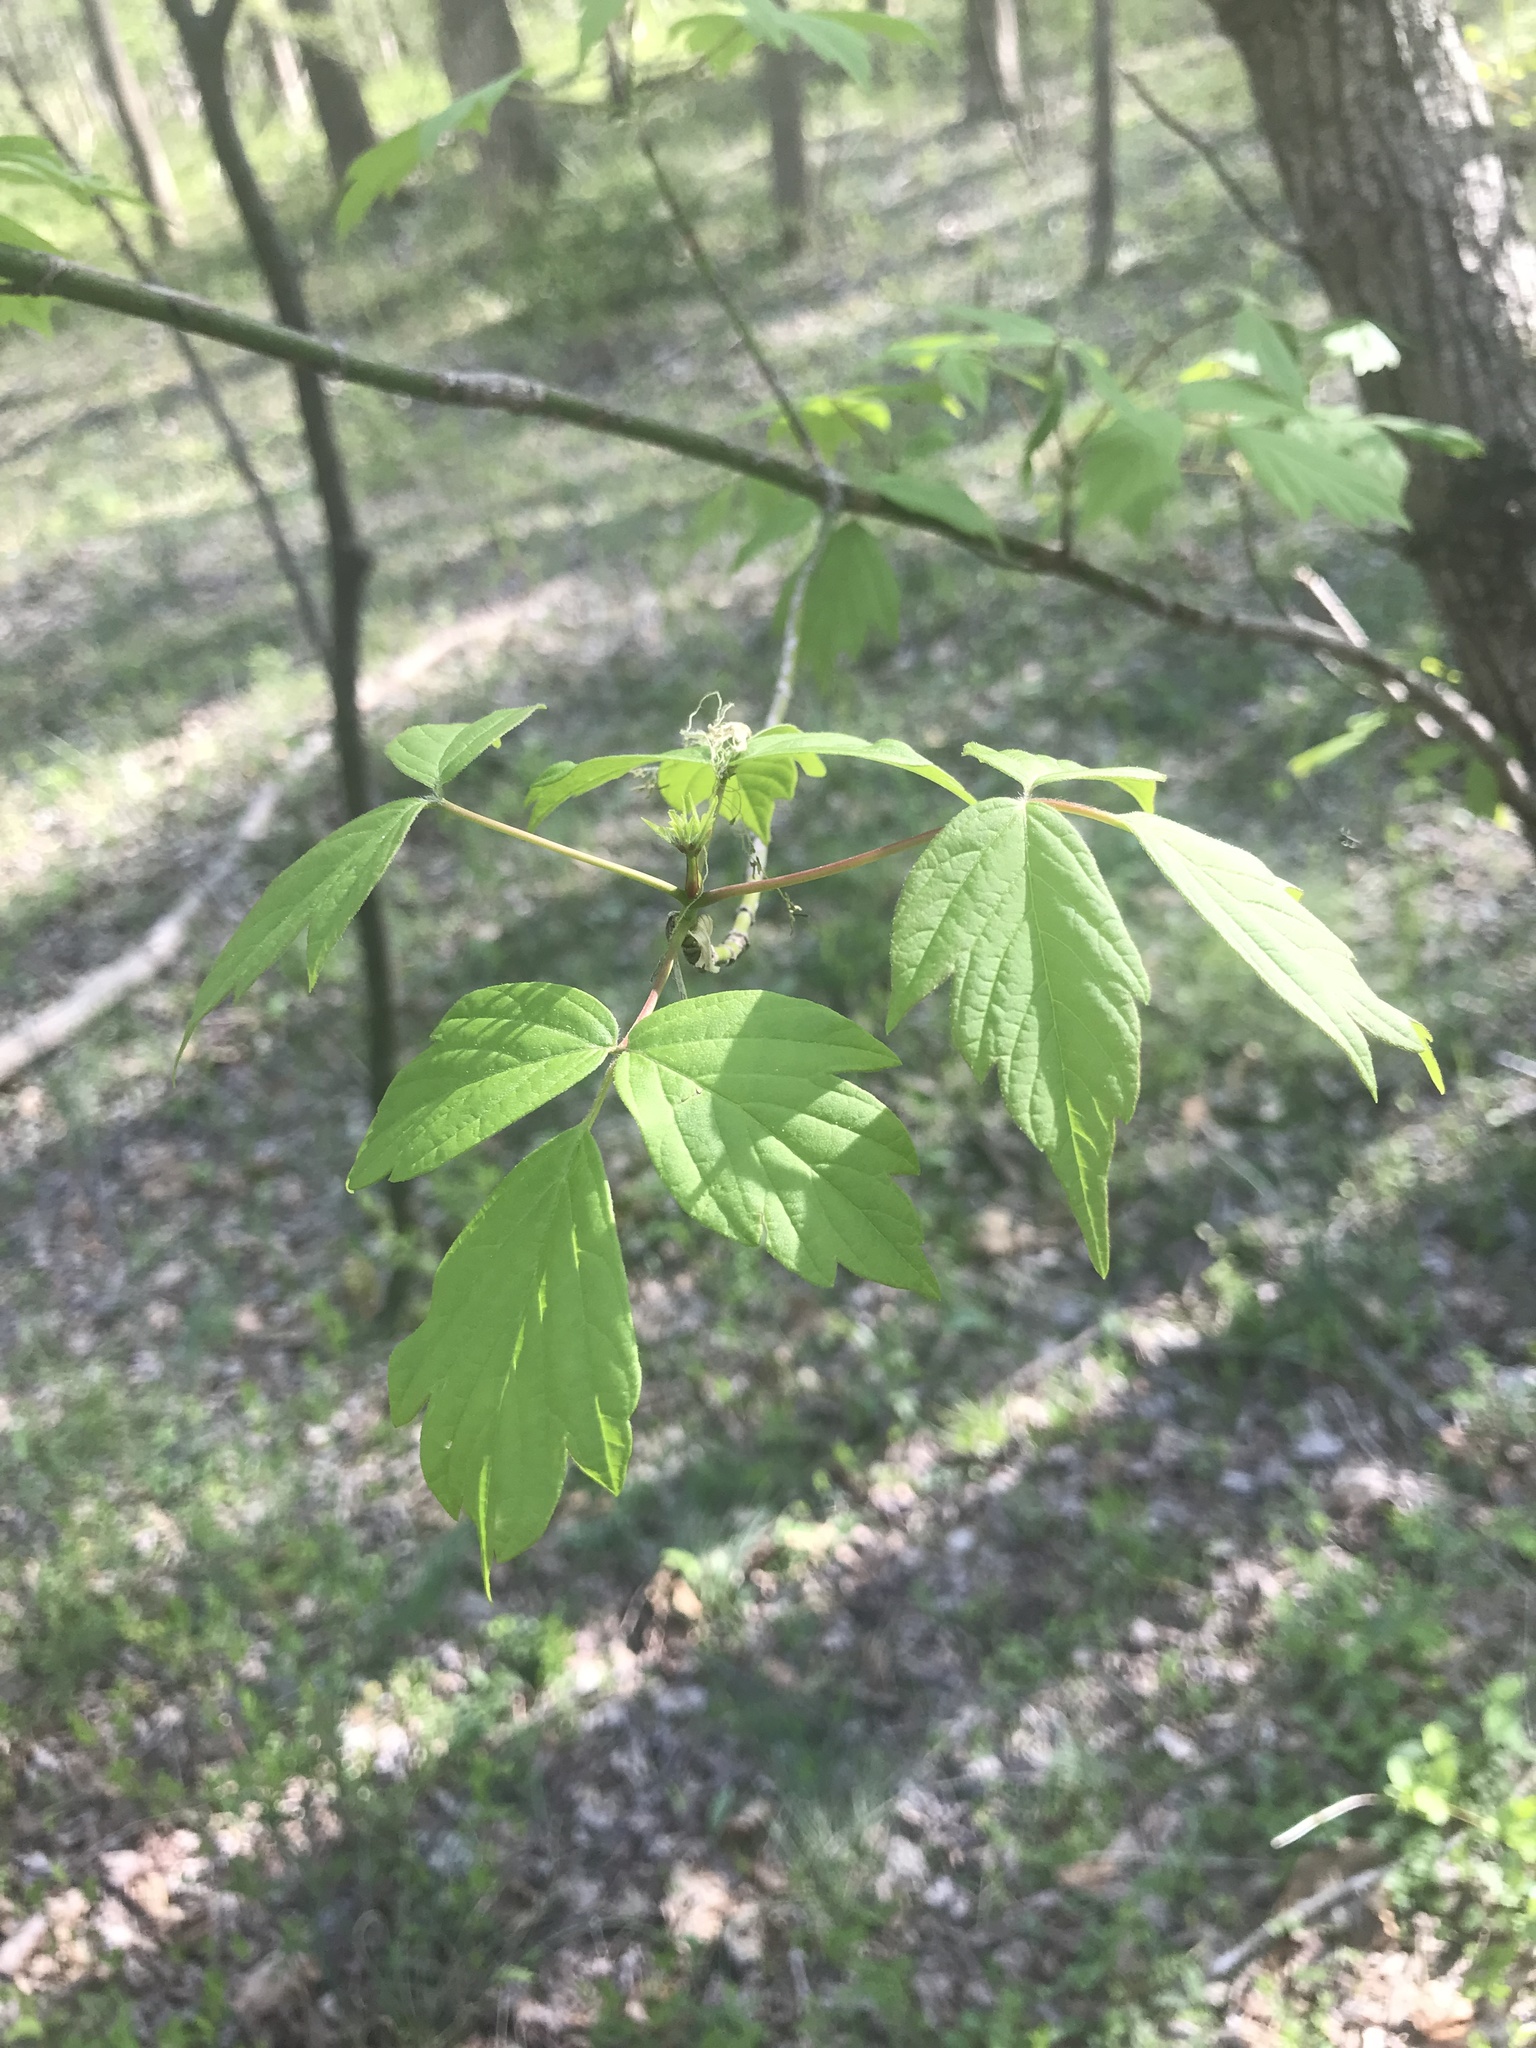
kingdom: Plantae
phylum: Tracheophyta
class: Magnoliopsida
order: Sapindales
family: Sapindaceae
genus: Acer
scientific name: Acer negundo
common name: Ashleaf maple
